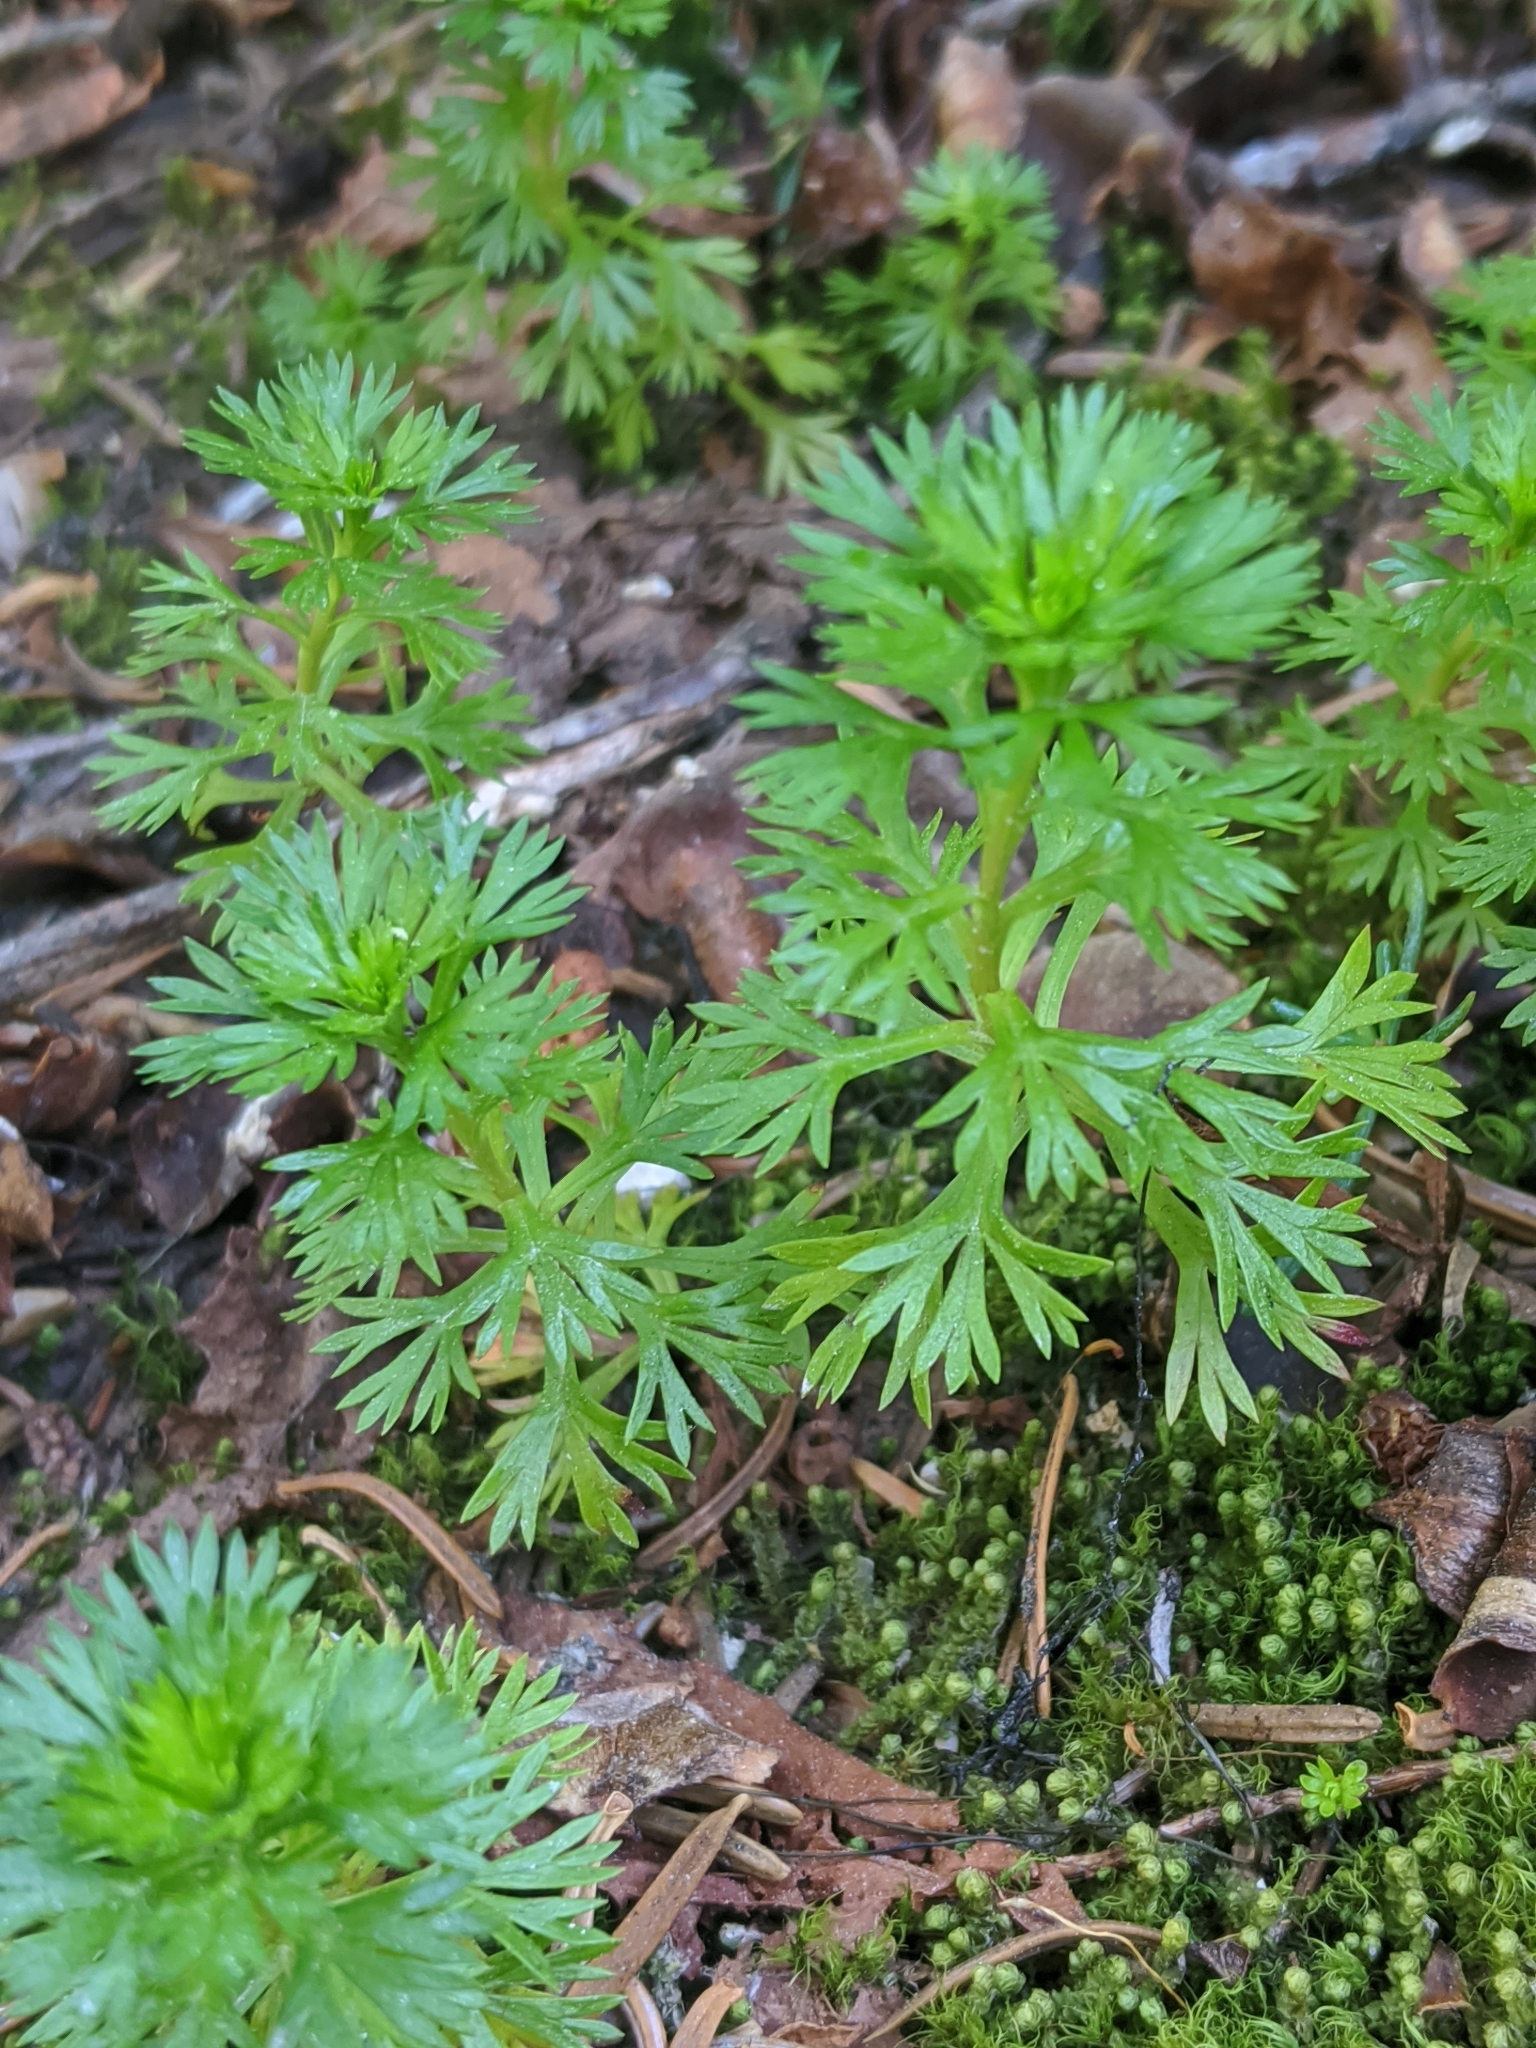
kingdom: Plantae
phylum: Tracheophyta
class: Magnoliopsida
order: Rosales
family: Rosaceae
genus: Luetkea
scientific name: Luetkea pectinata
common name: Partridgefoot
